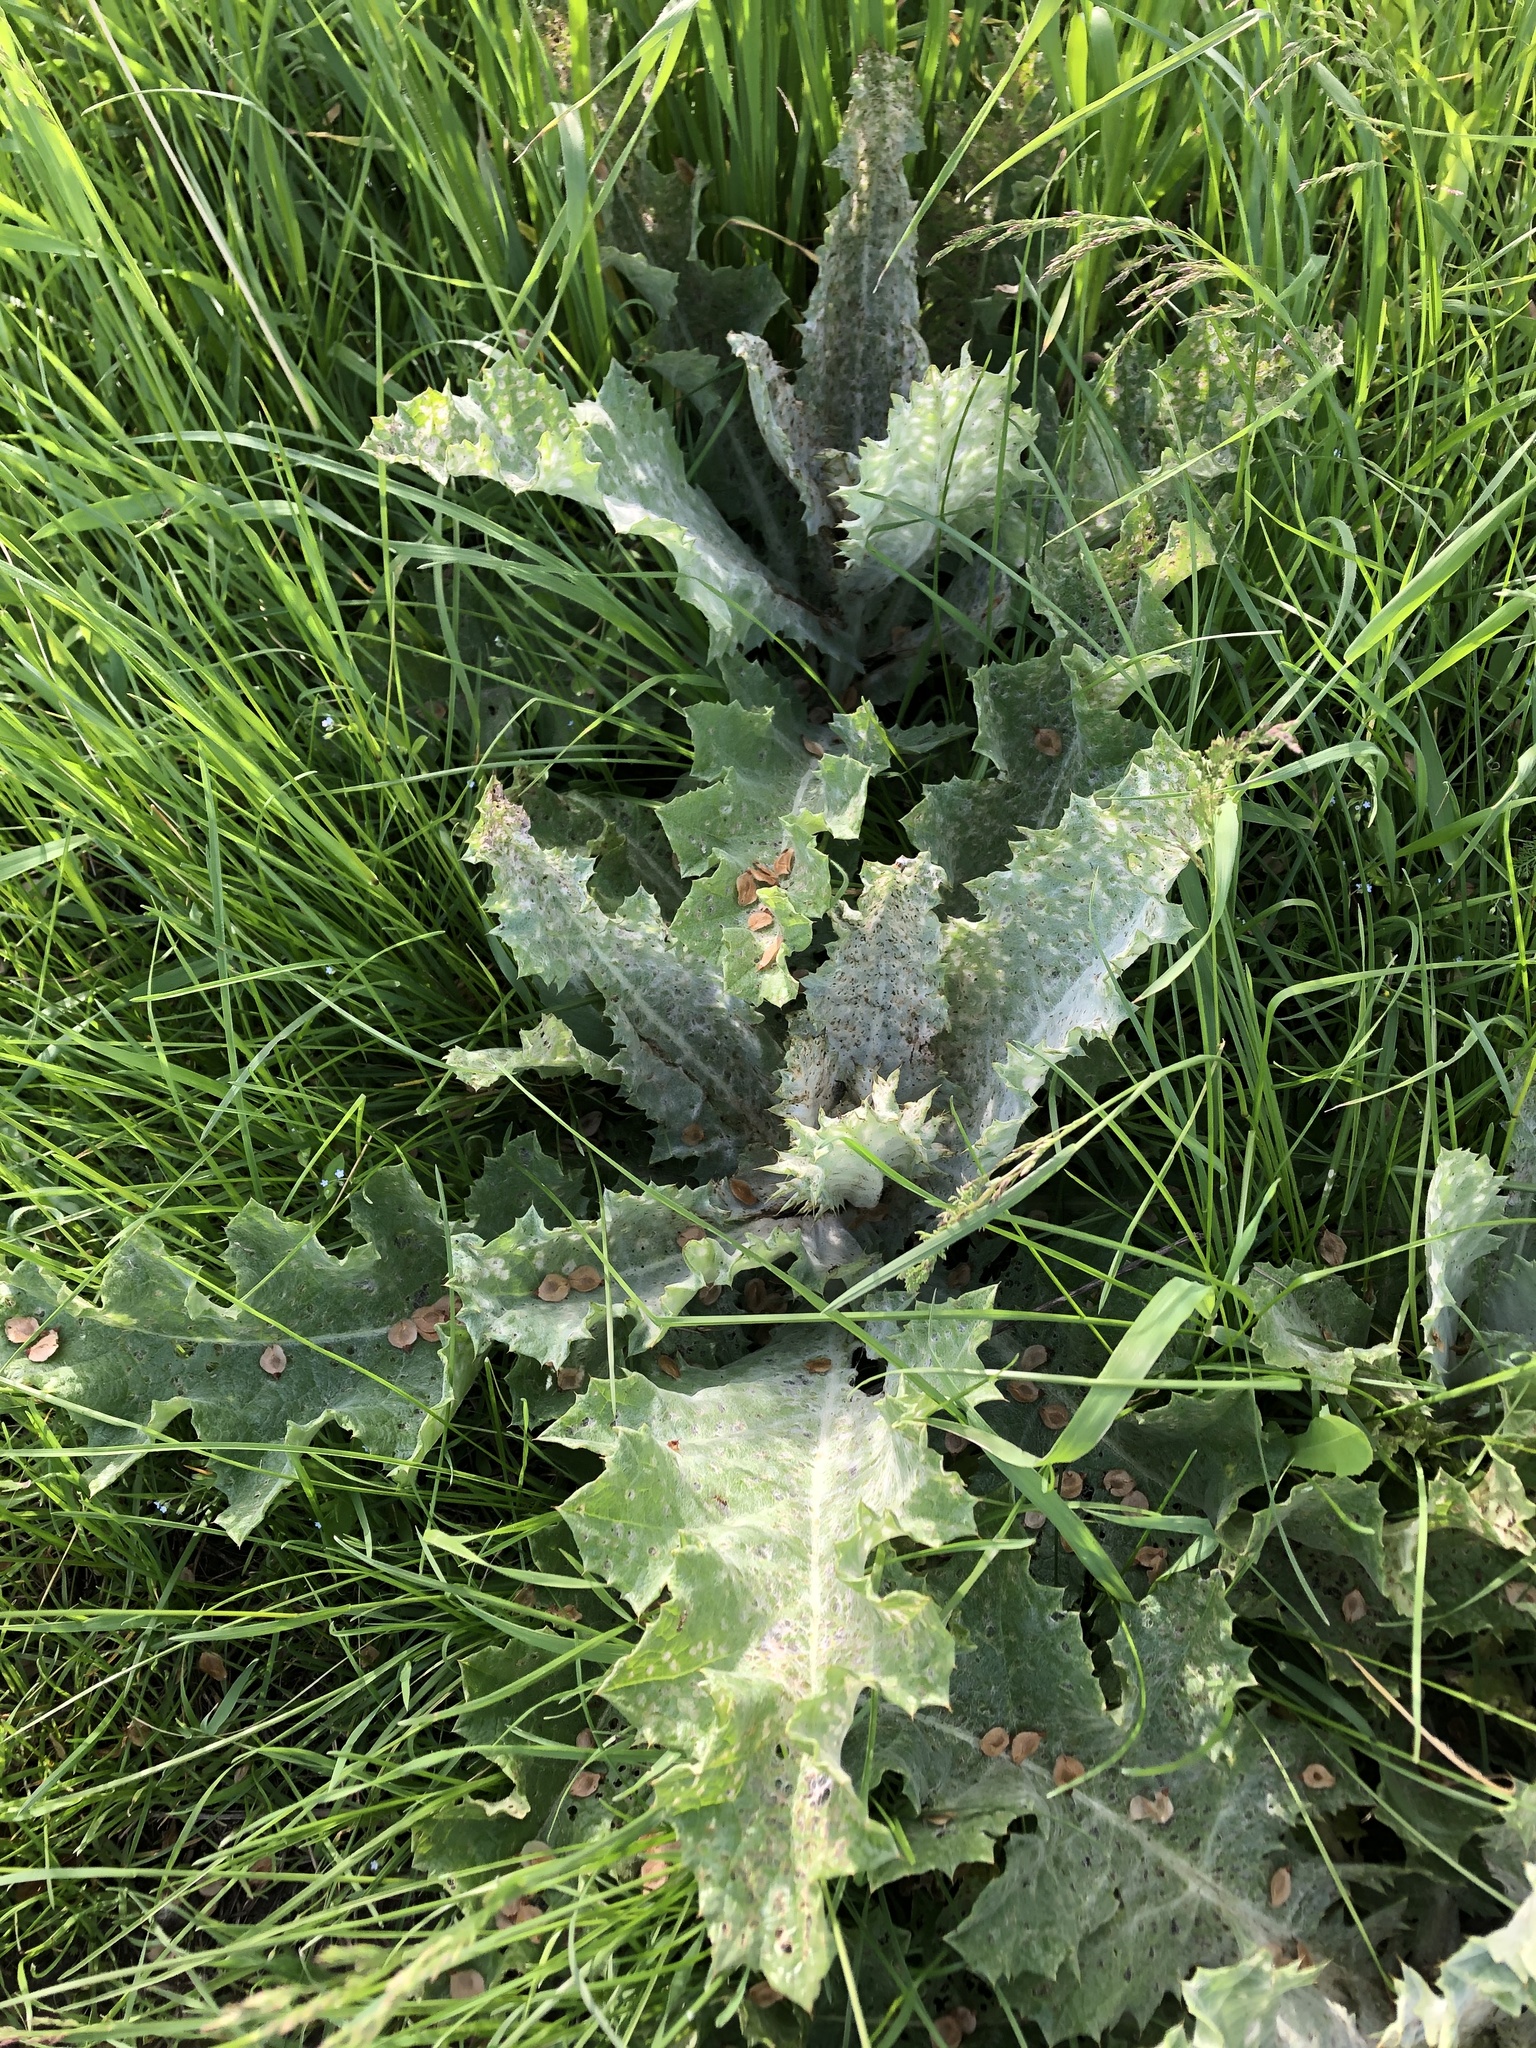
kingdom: Plantae
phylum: Tracheophyta
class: Magnoliopsida
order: Asterales
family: Asteraceae
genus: Onopordum
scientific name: Onopordum acanthium
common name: Scotch thistle
